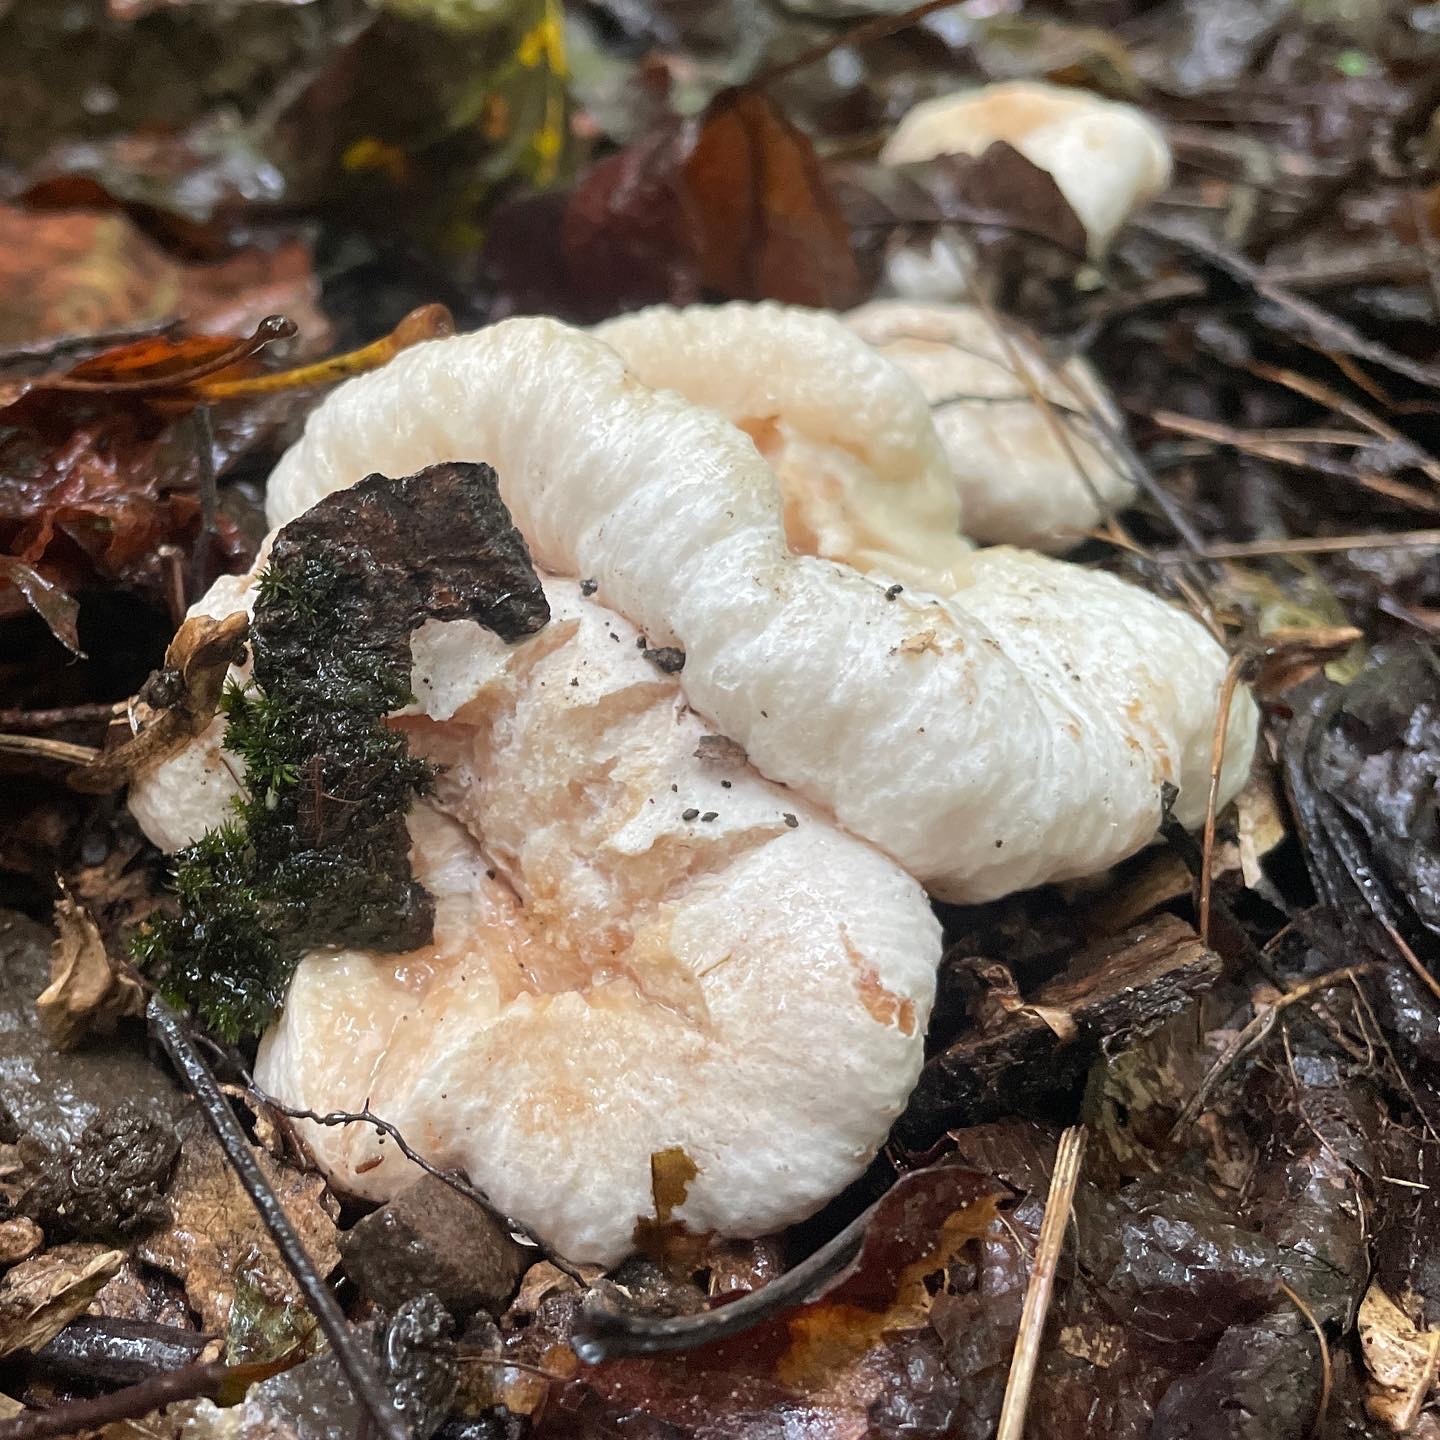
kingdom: Fungi
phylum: Basidiomycota
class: Agaricomycetes
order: Agaricales
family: Entolomataceae
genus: Entoloma
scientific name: Entoloma abortivum
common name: Aborted entoloma
